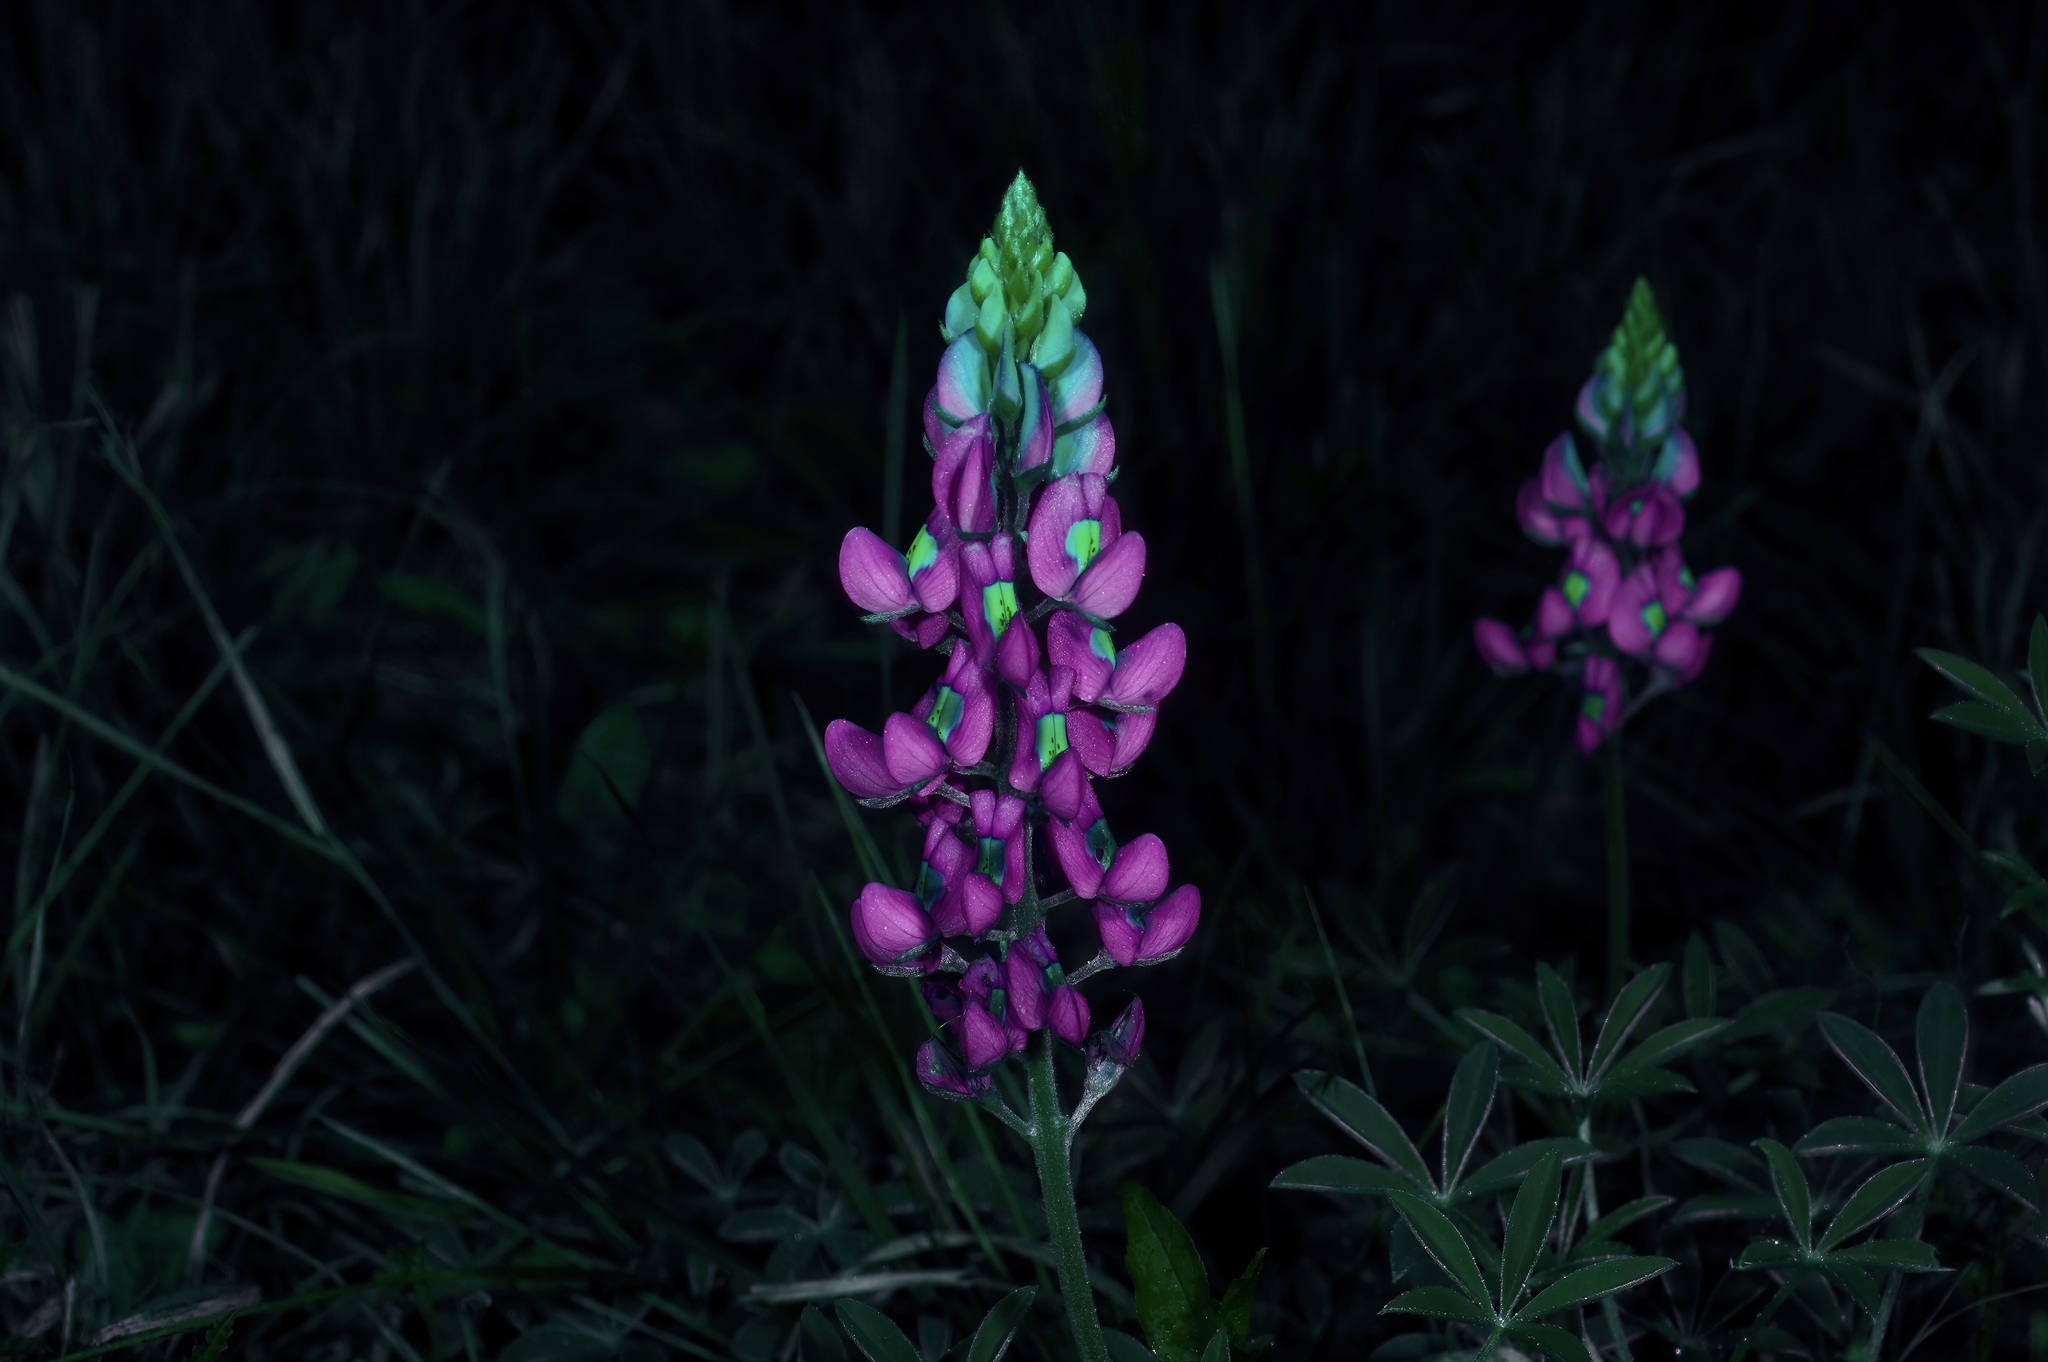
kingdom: Plantae
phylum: Tracheophyta
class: Magnoliopsida
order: Fabales
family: Fabaceae
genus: Lupinus
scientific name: Lupinus texensis
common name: Texas bluebonnet
